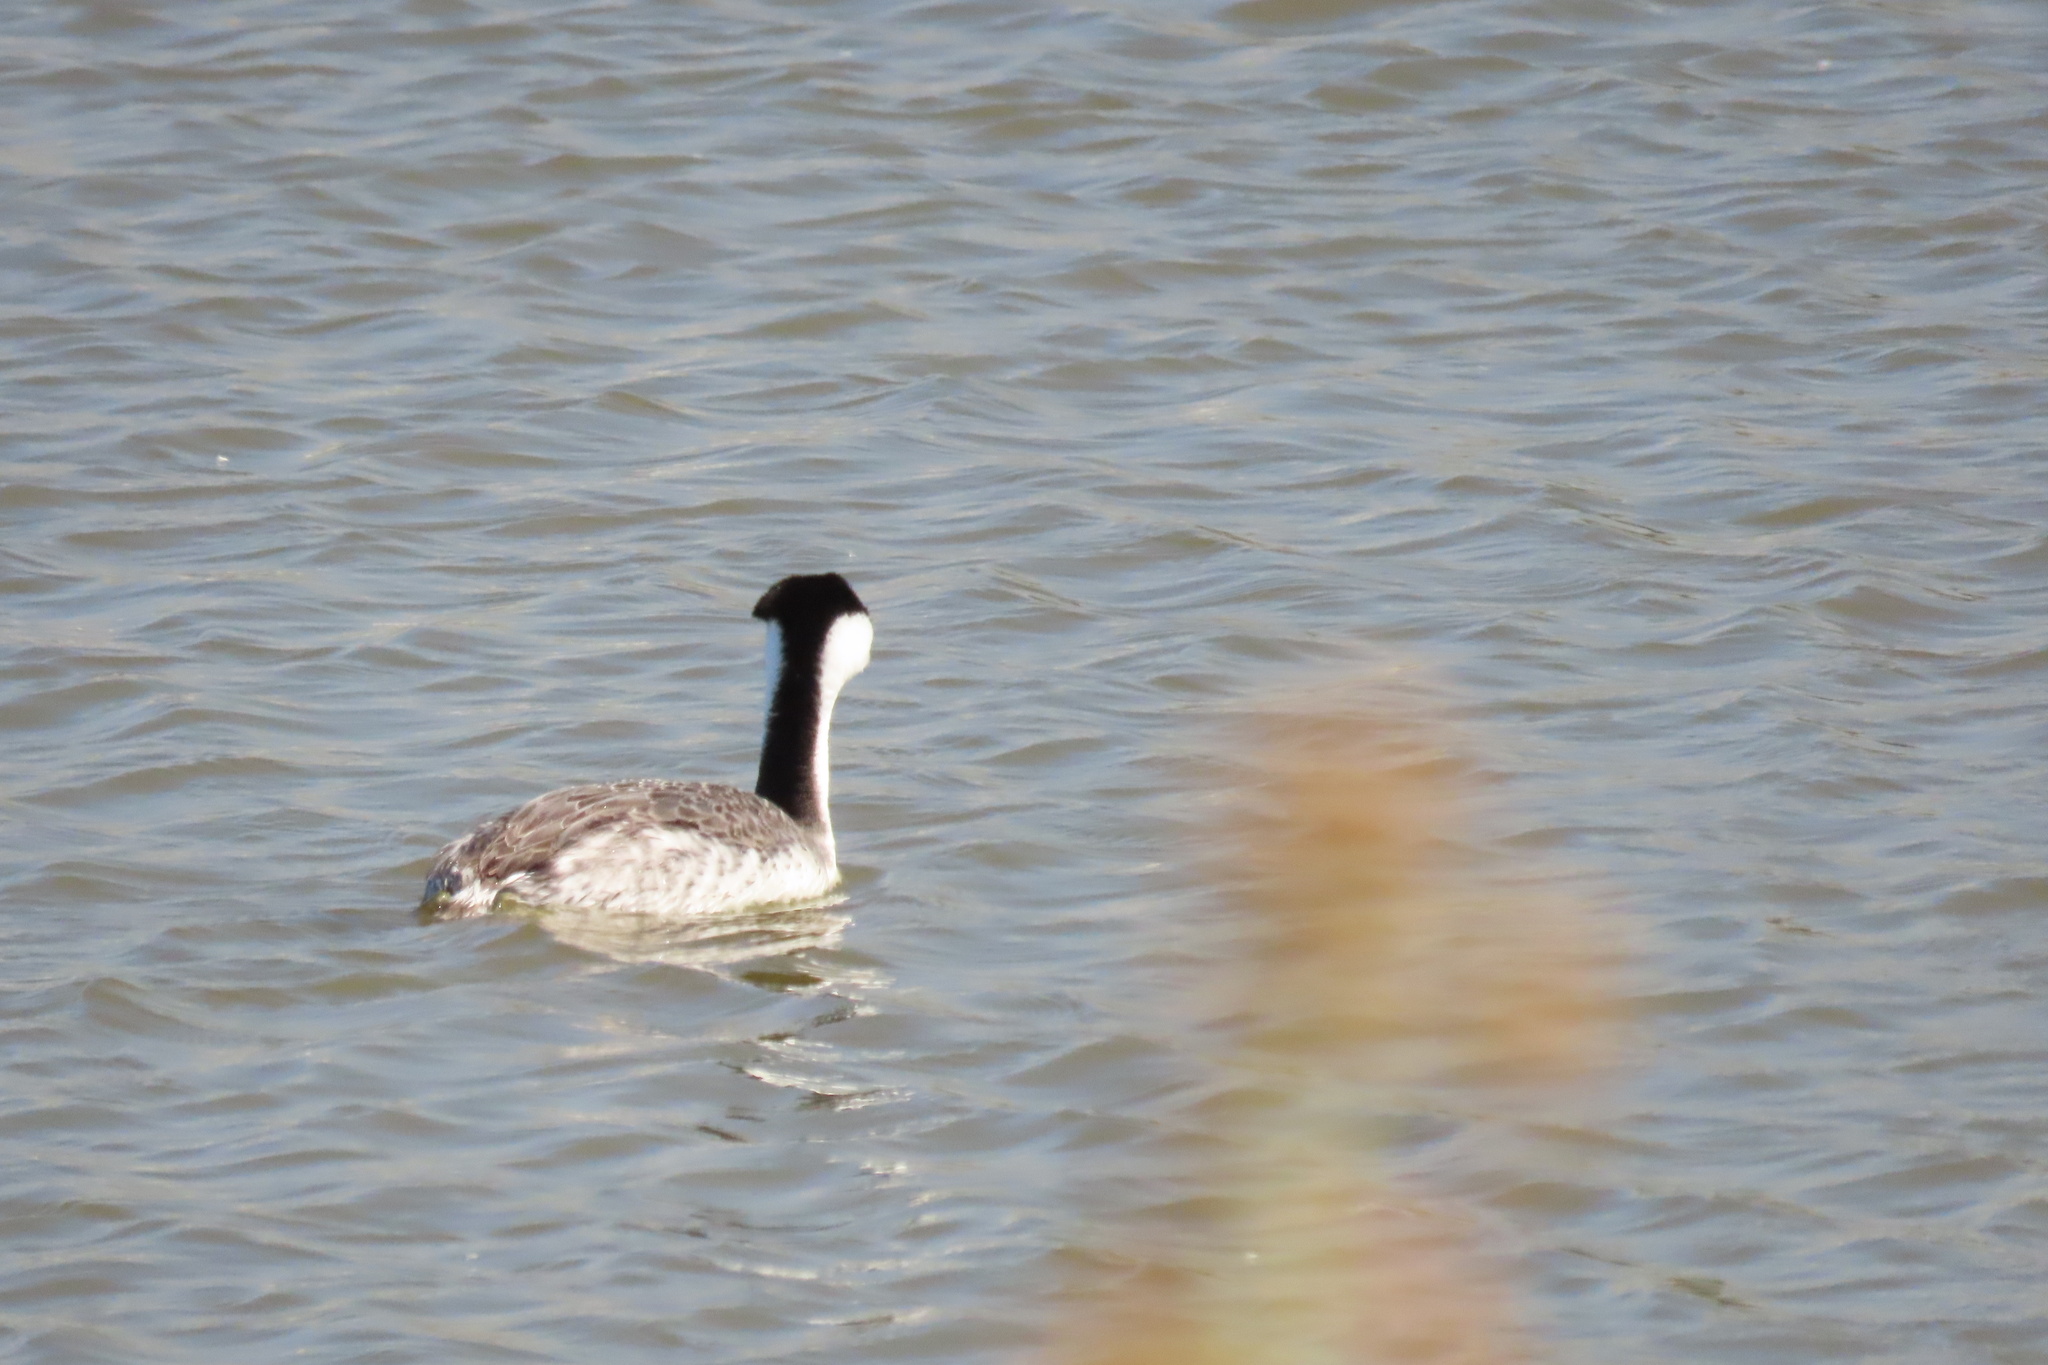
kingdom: Animalia
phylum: Chordata
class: Aves
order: Podicipediformes
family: Podicipedidae
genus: Aechmophorus
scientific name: Aechmophorus clarkii
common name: Clark's grebe
